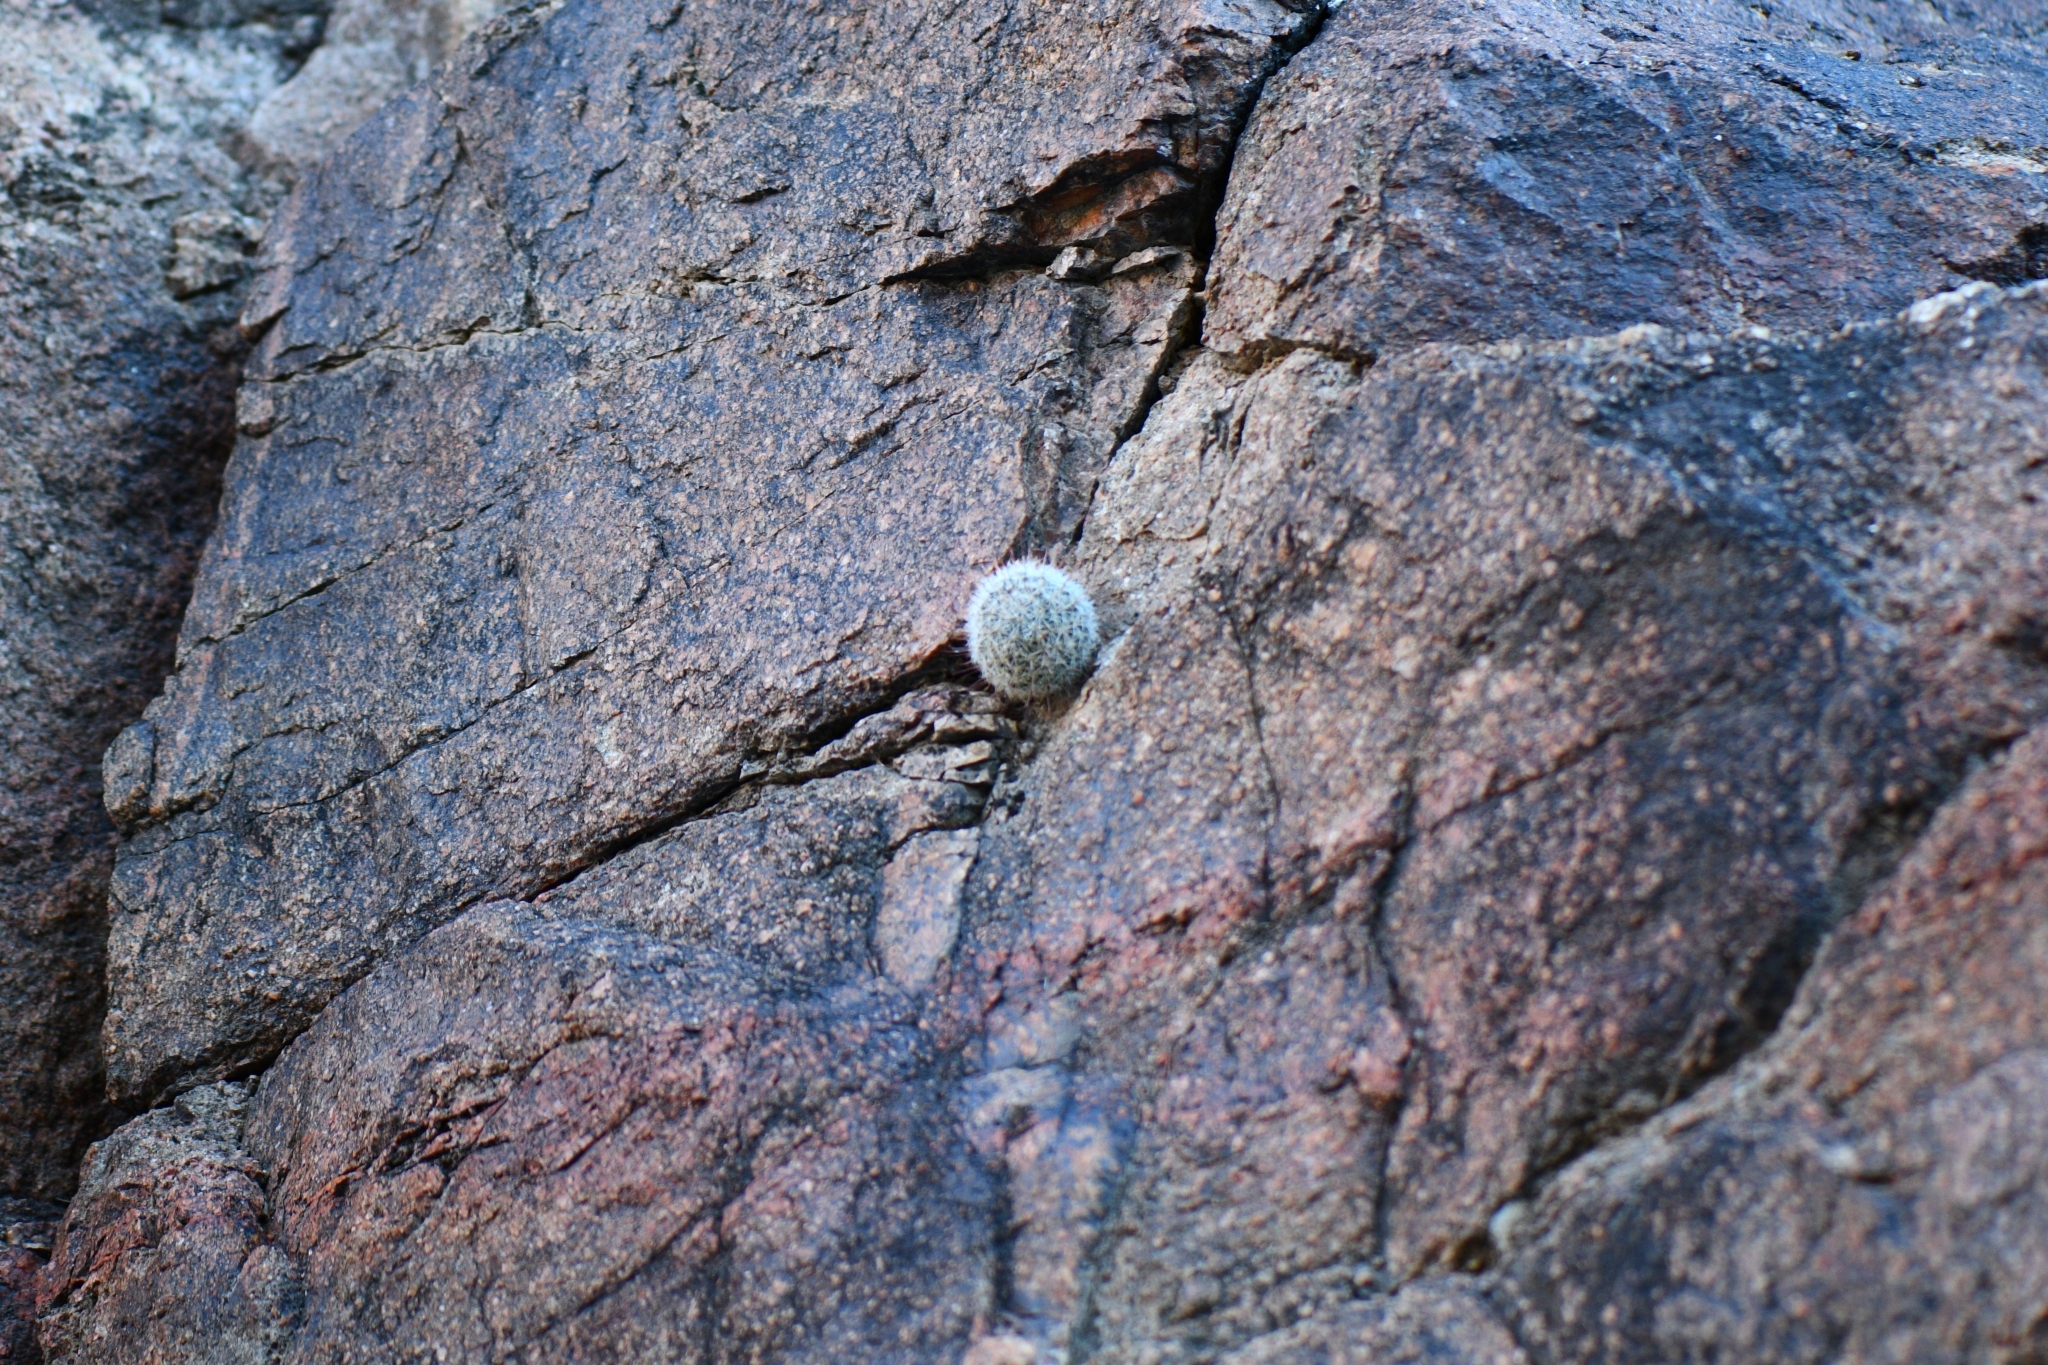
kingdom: Plantae
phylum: Tracheophyta
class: Magnoliopsida
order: Caryophyllales
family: Cactaceae
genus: Cochemiea
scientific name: Cochemiea grahamii
